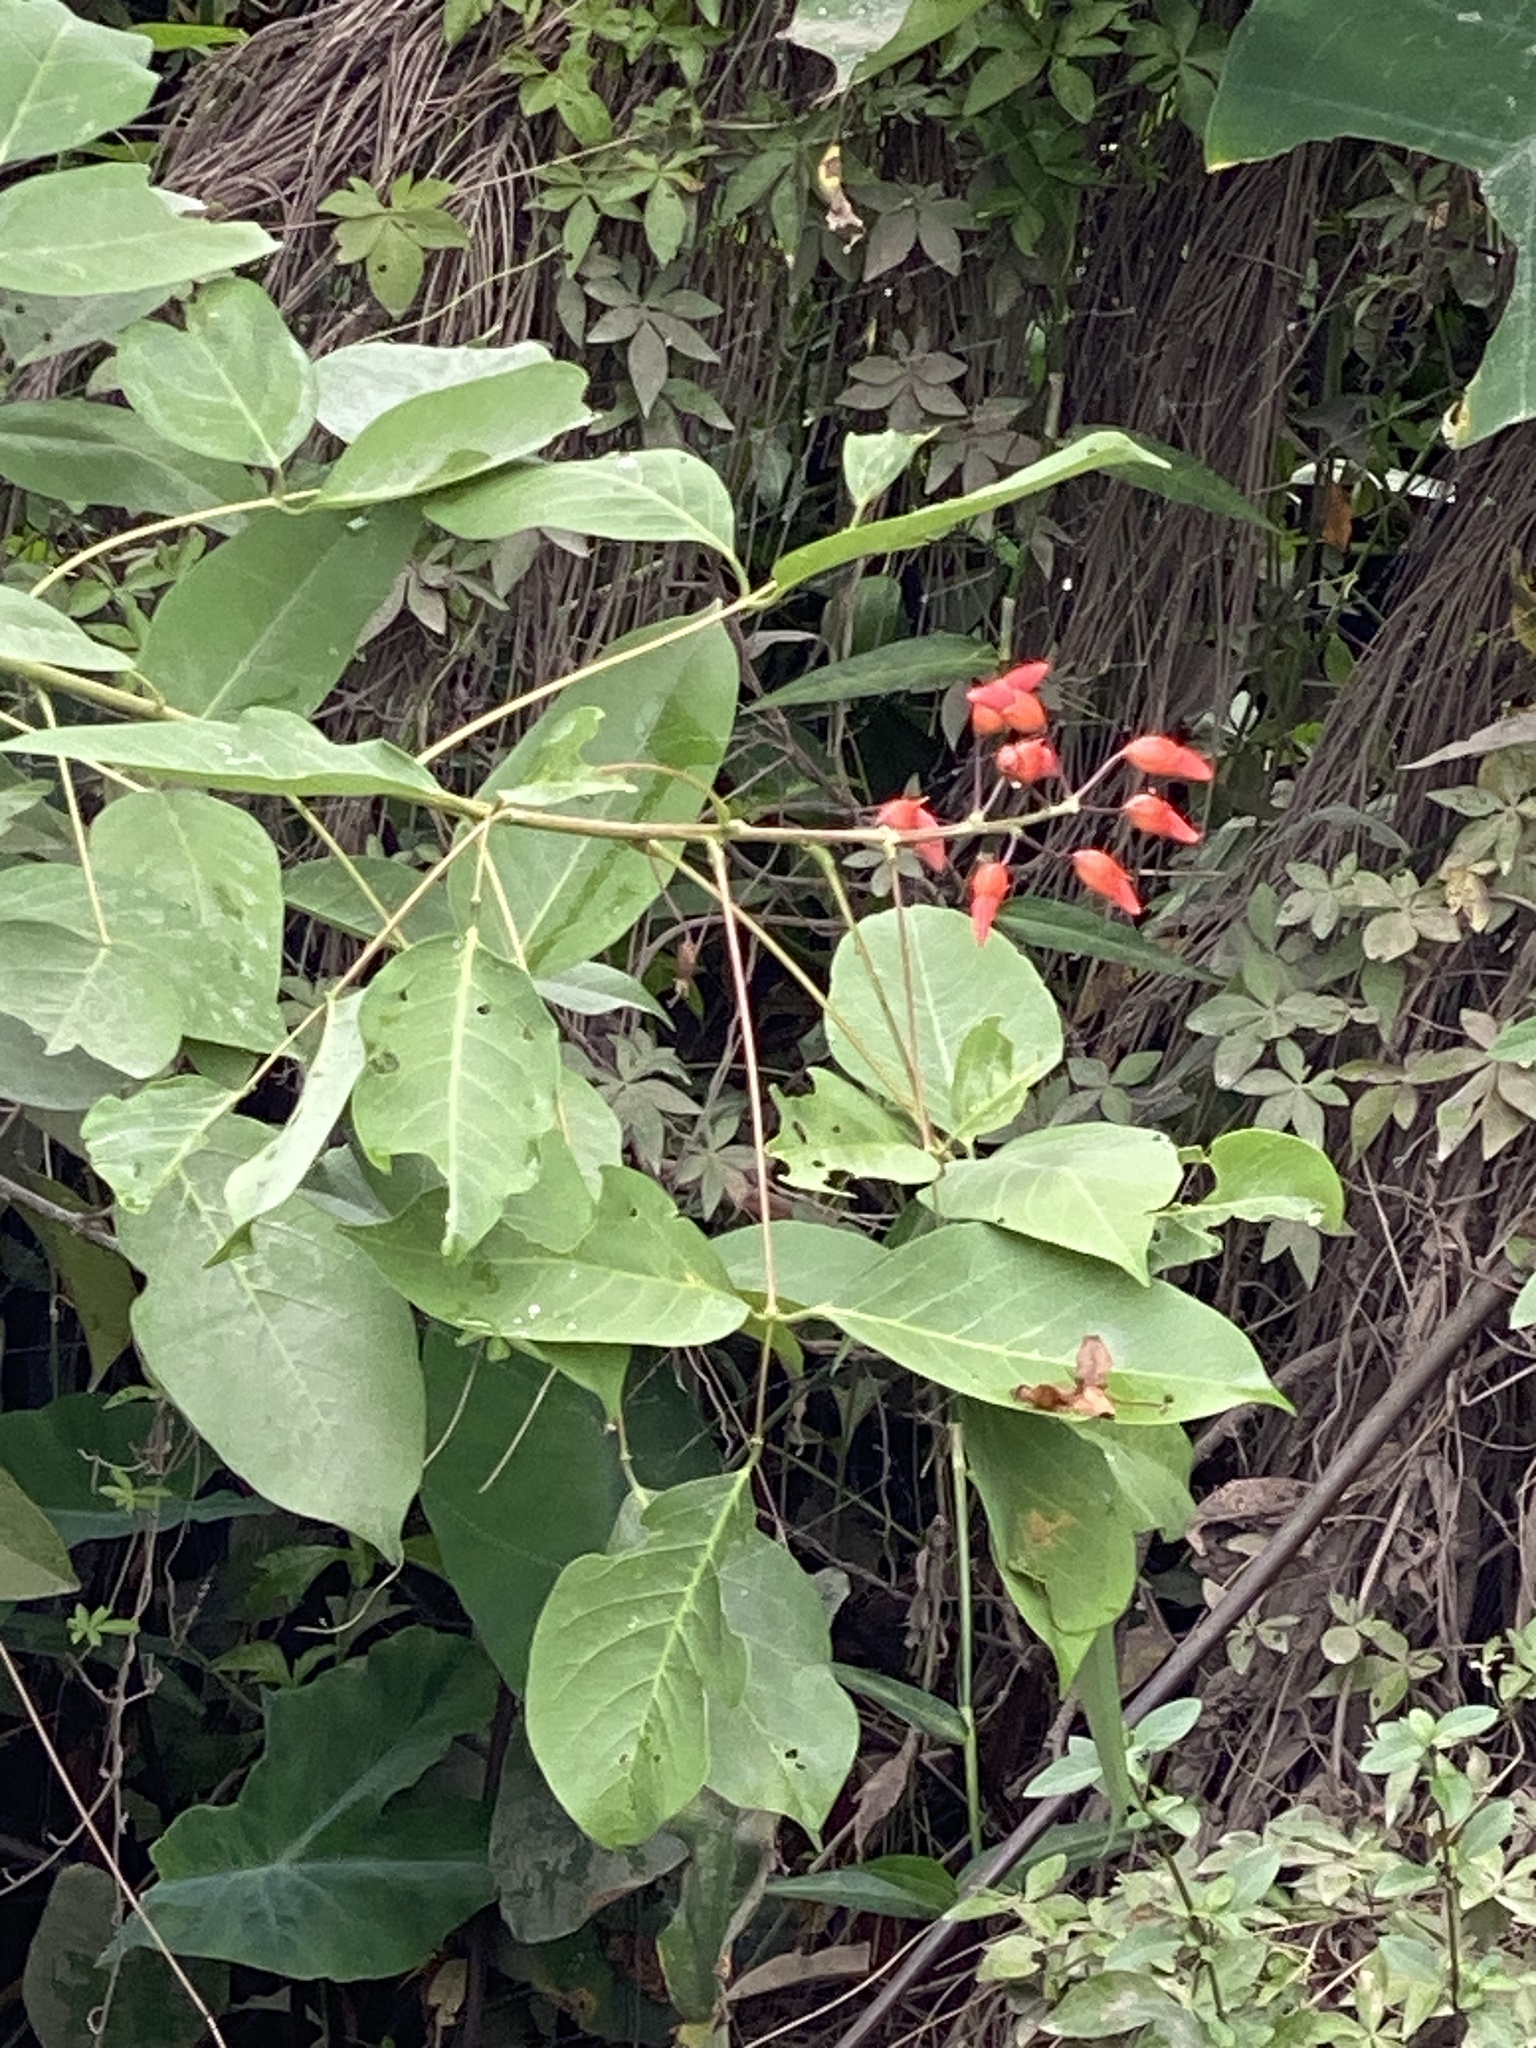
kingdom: Plantae
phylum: Tracheophyta
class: Magnoliopsida
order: Fabales
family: Fabaceae
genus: Erythrina
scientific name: Erythrina crista-galli
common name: Cockspur coral tree
